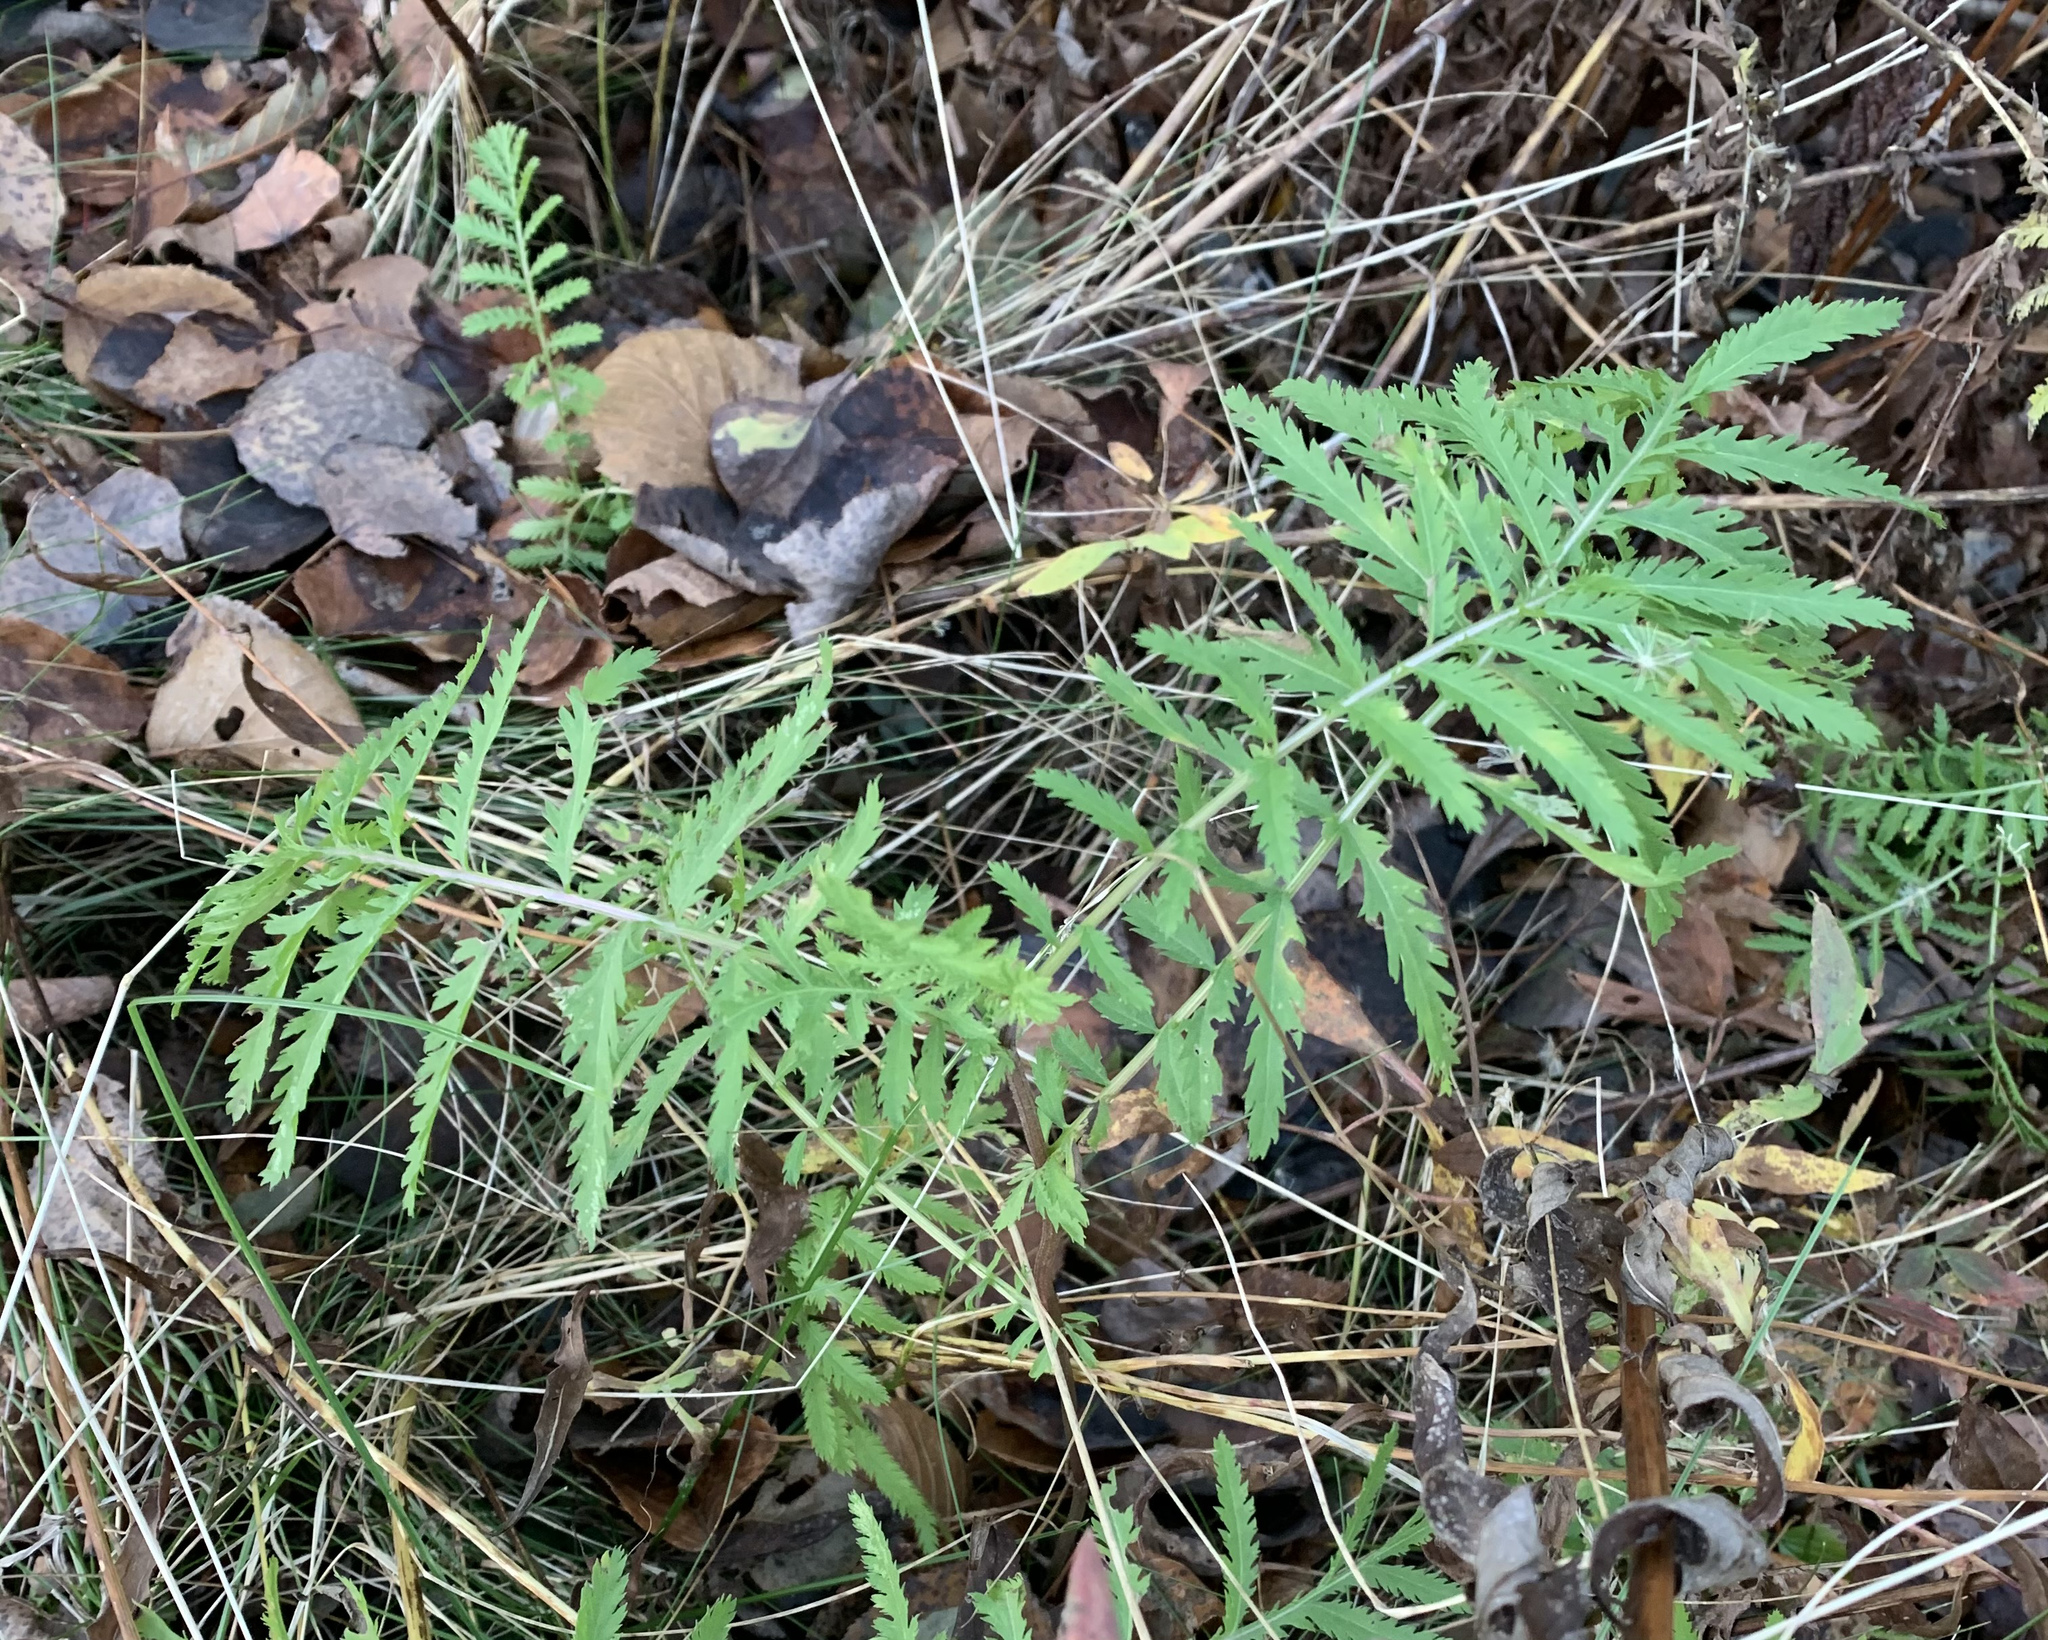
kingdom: Plantae
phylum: Tracheophyta
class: Magnoliopsida
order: Asterales
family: Asteraceae
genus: Tanacetum
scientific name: Tanacetum vulgare
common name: Common tansy
